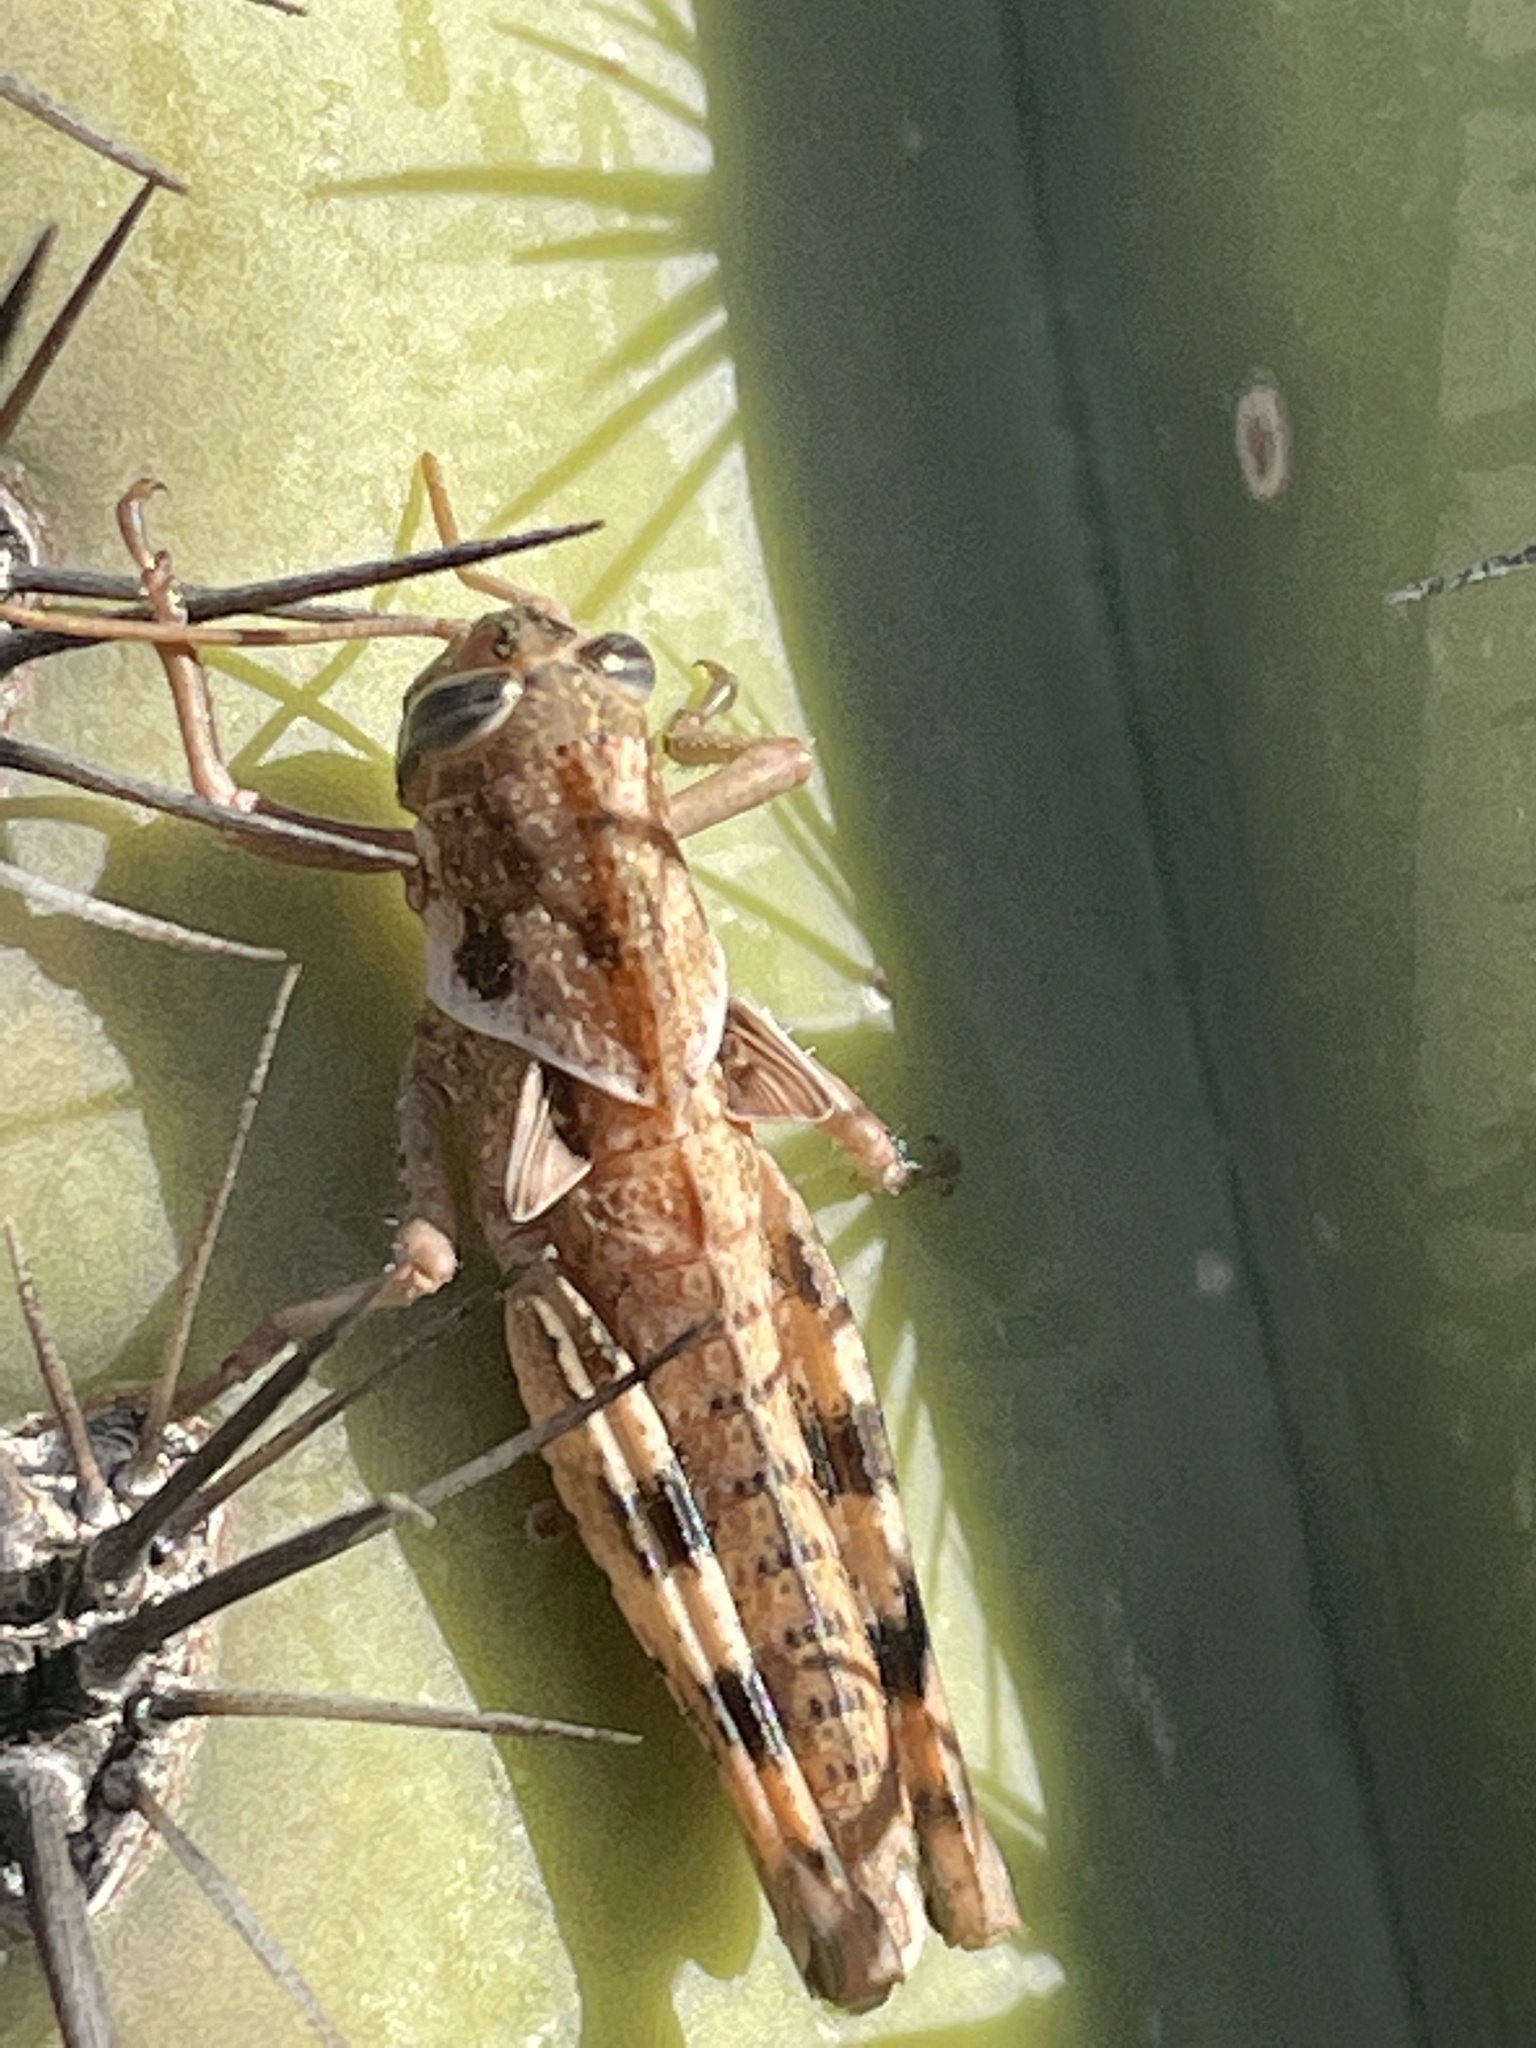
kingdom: Animalia
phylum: Arthropoda
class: Insecta
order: Orthoptera
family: Acrididae
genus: Schistocerca
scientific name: Schistocerca nitens
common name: Vagrant grasshopper
